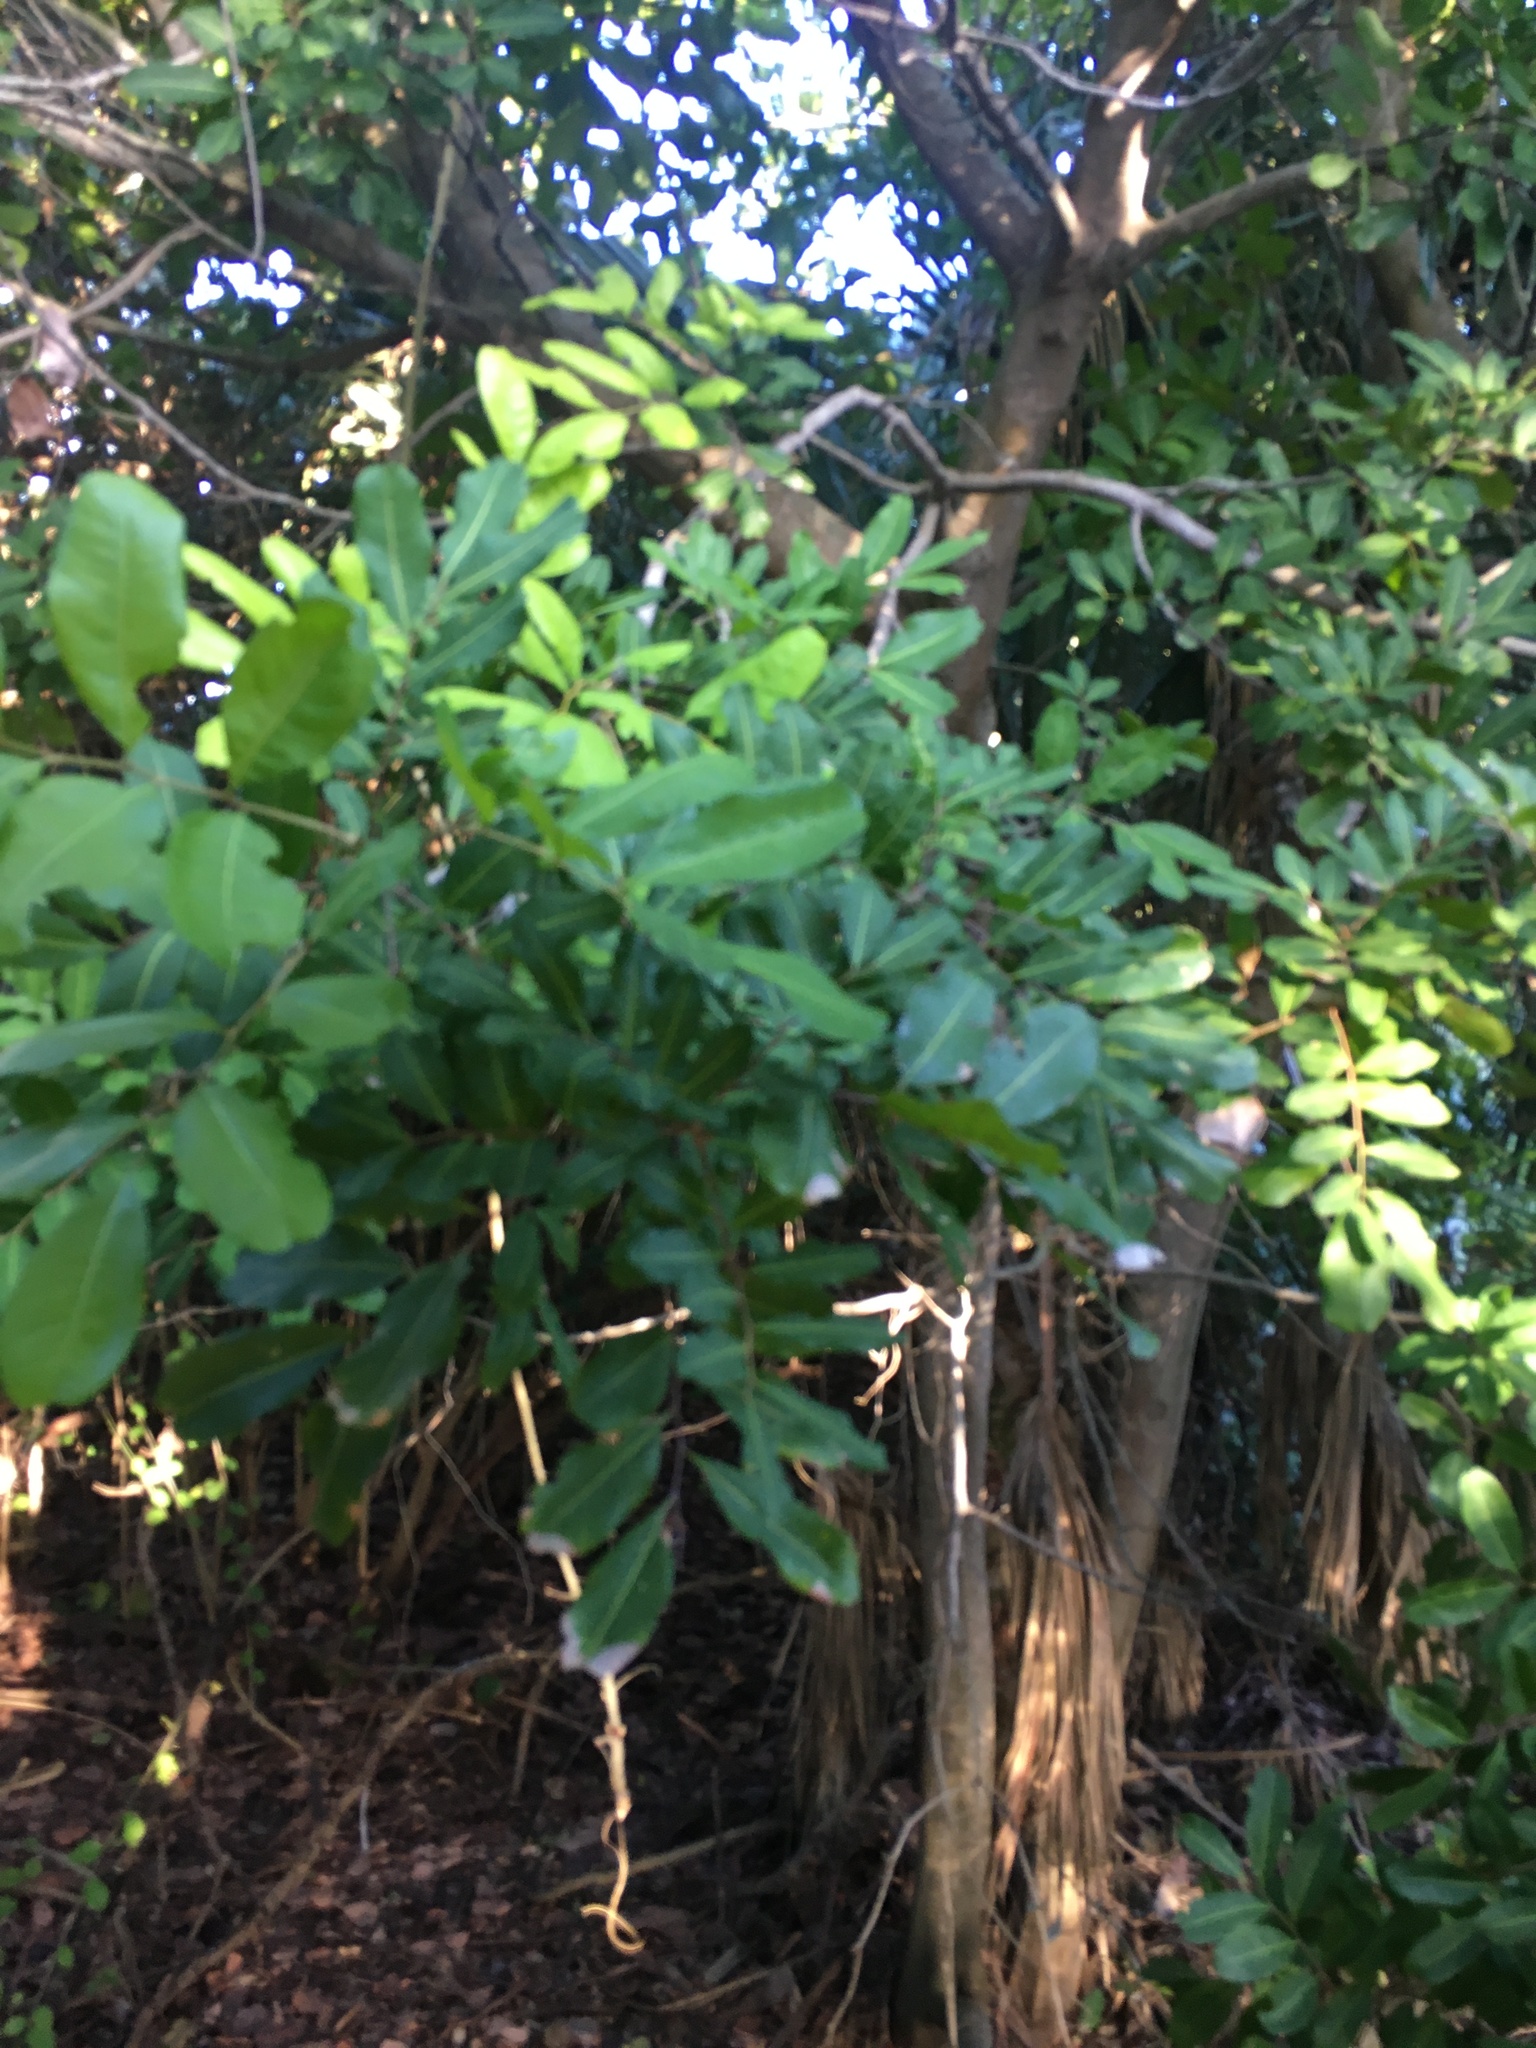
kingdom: Plantae
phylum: Tracheophyta
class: Magnoliopsida
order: Sapindales
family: Sapindaceae
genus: Cupaniopsis
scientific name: Cupaniopsis anacardioides
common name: Carrotwood
